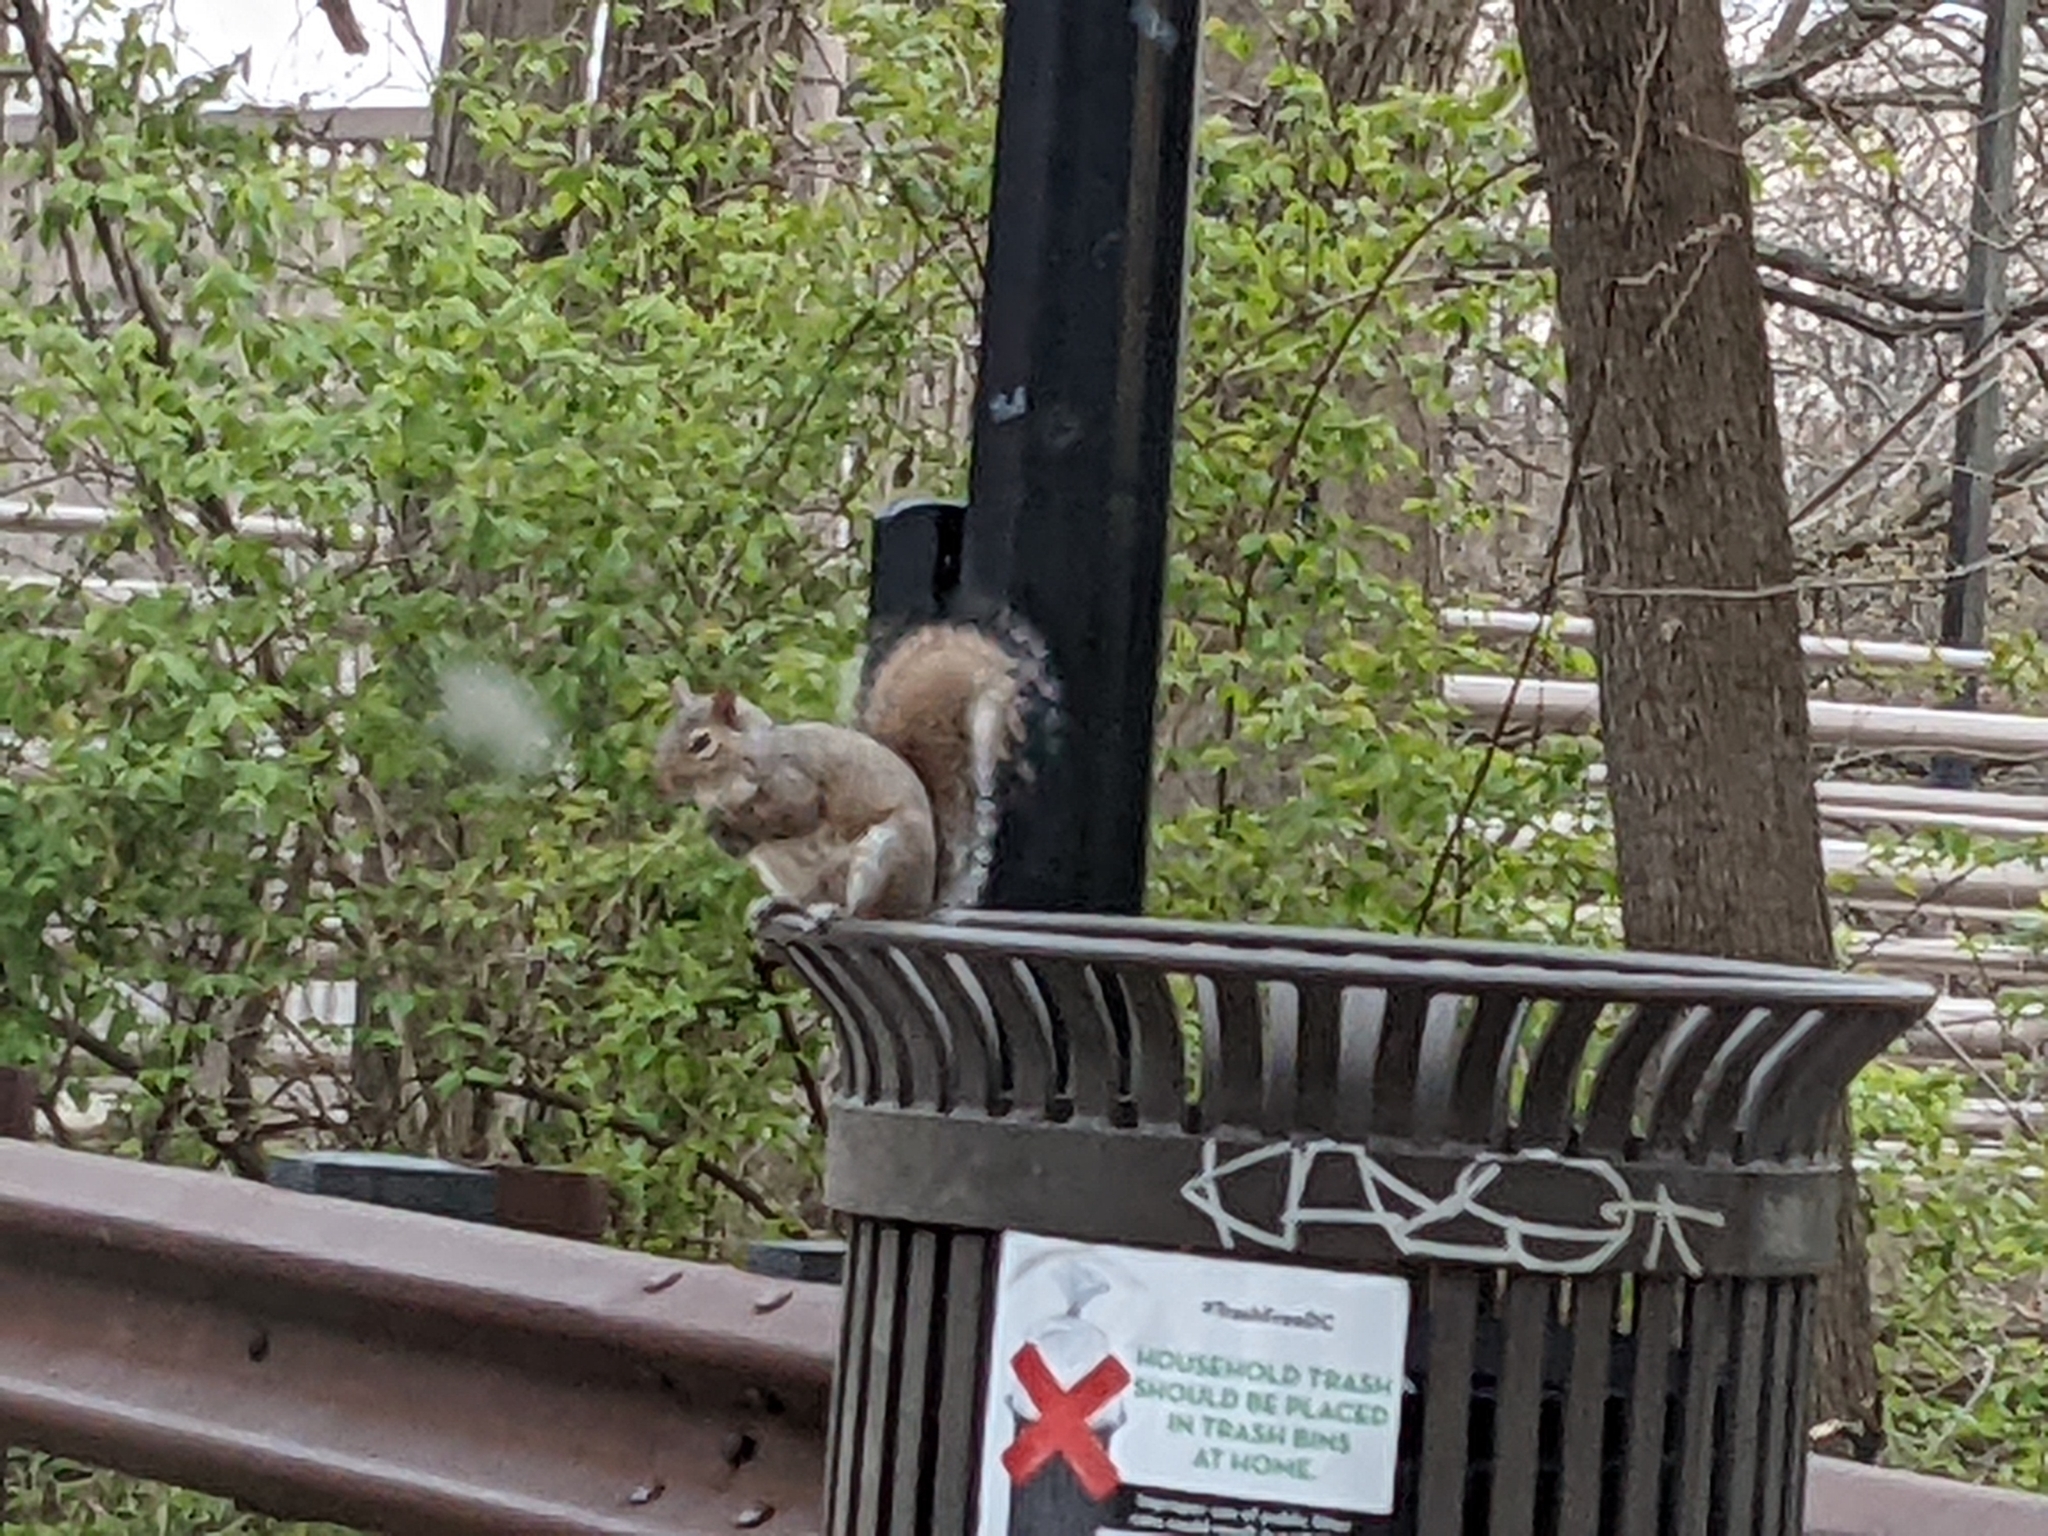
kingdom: Animalia
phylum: Chordata
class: Mammalia
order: Rodentia
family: Sciuridae
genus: Sciurus
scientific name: Sciurus carolinensis
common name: Eastern gray squirrel
